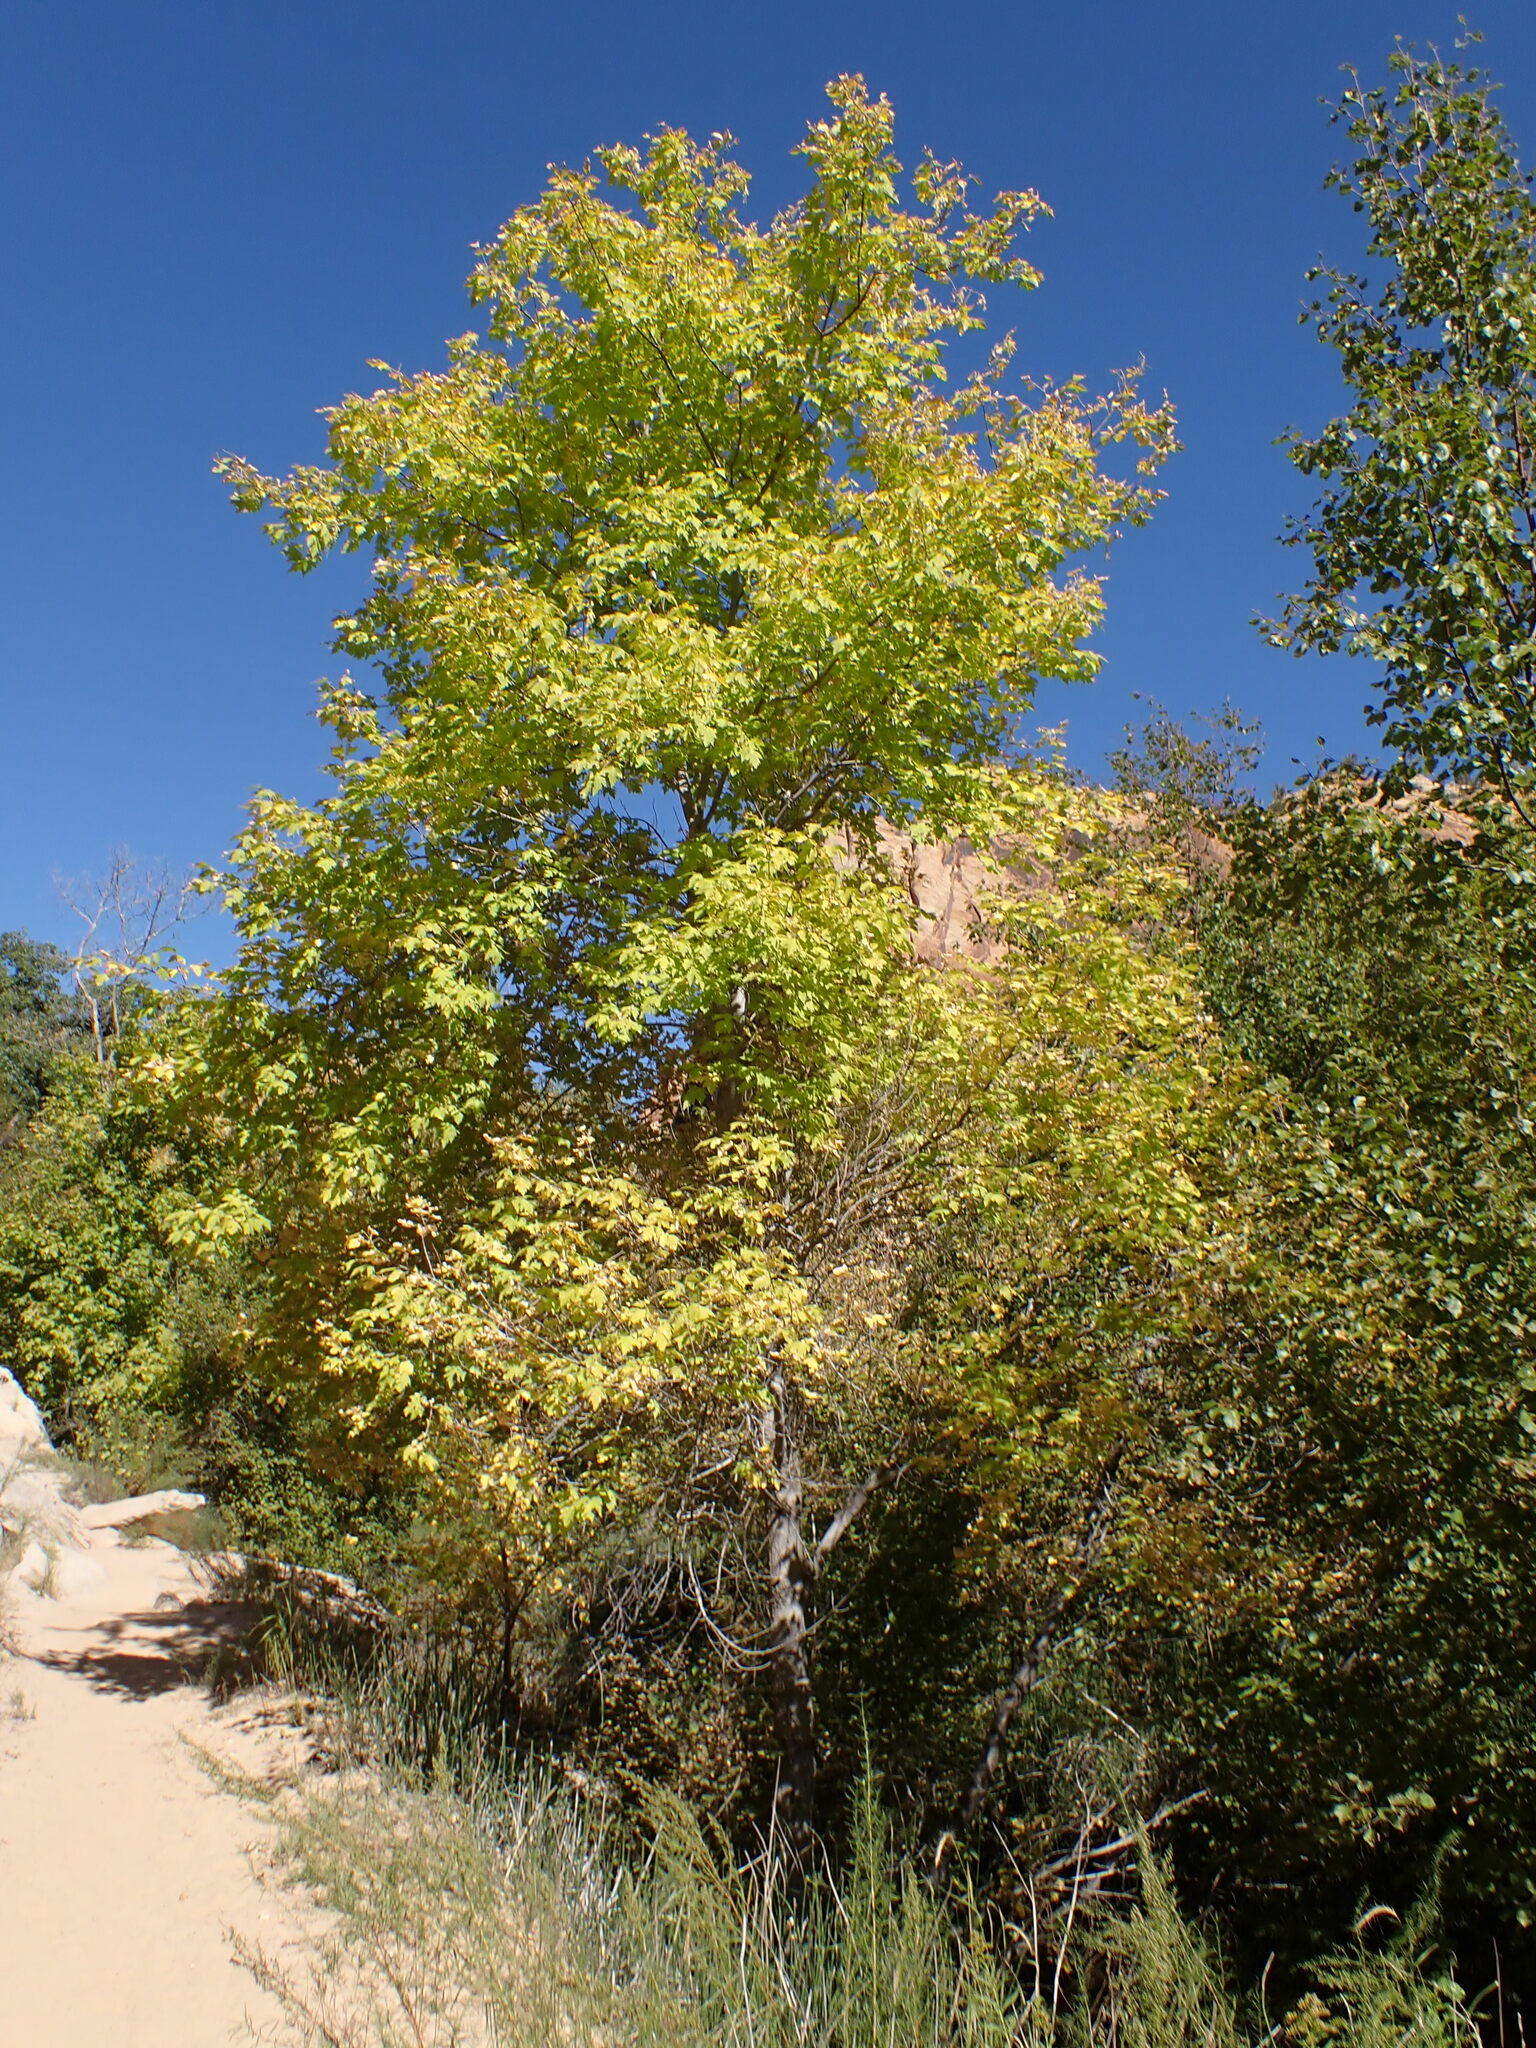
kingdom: Plantae
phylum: Tracheophyta
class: Magnoliopsida
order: Sapindales
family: Sapindaceae
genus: Acer
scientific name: Acer negundo
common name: Ashleaf maple
